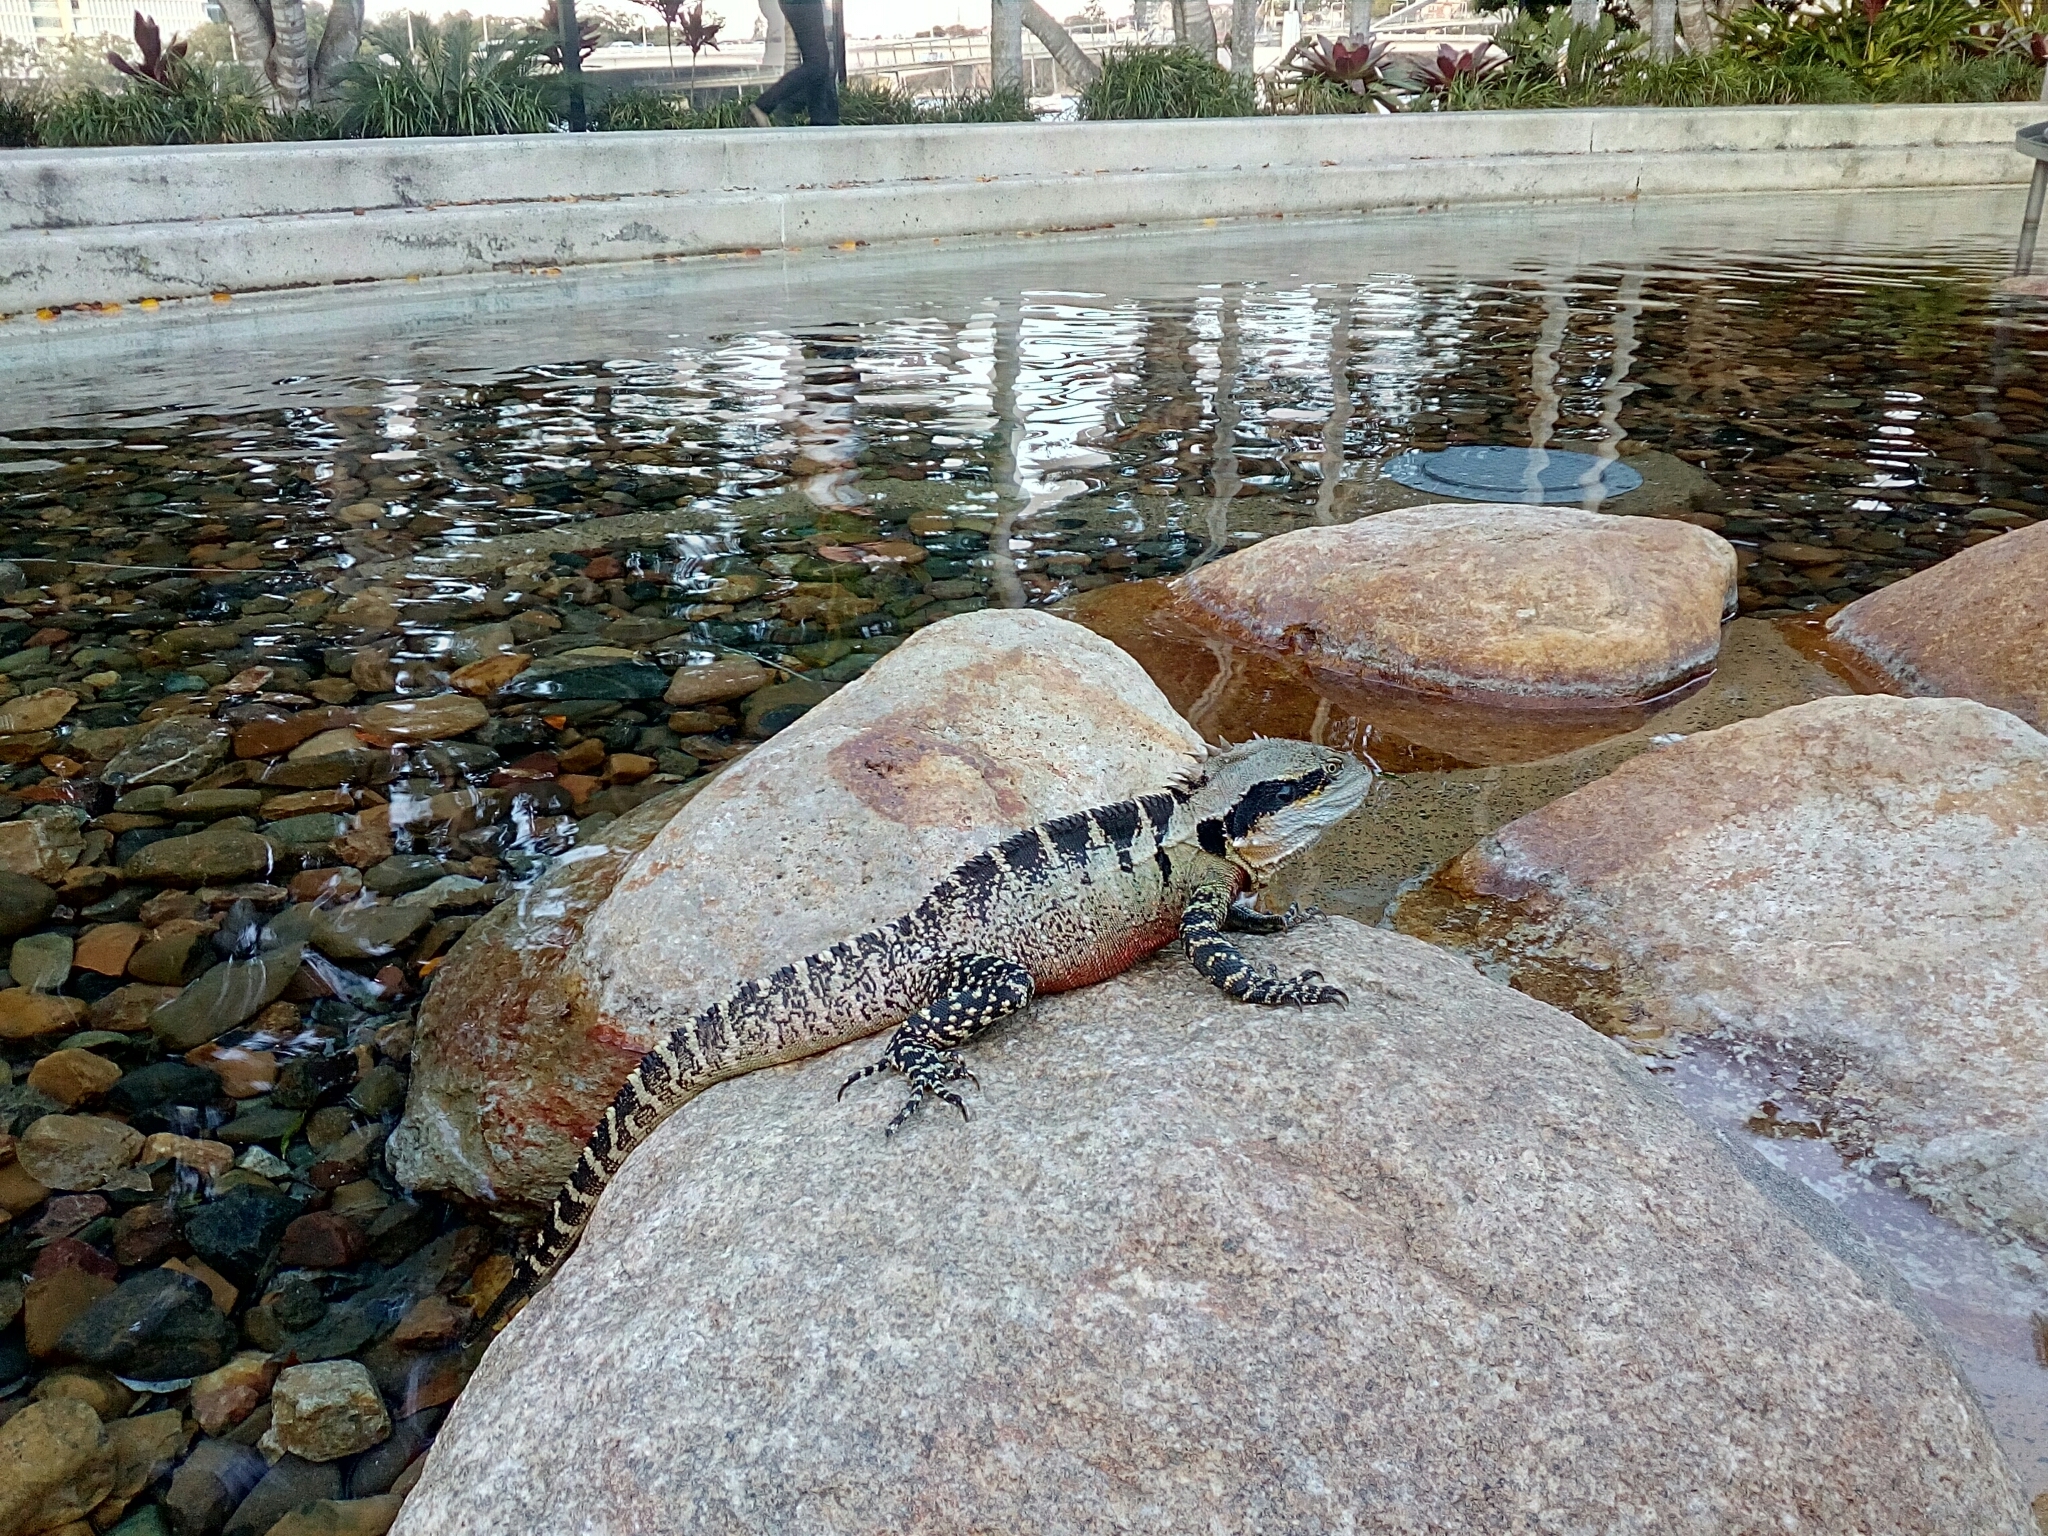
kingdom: Animalia
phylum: Chordata
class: Squamata
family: Agamidae
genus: Intellagama
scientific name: Intellagama lesueurii
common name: Eastern water dragon
